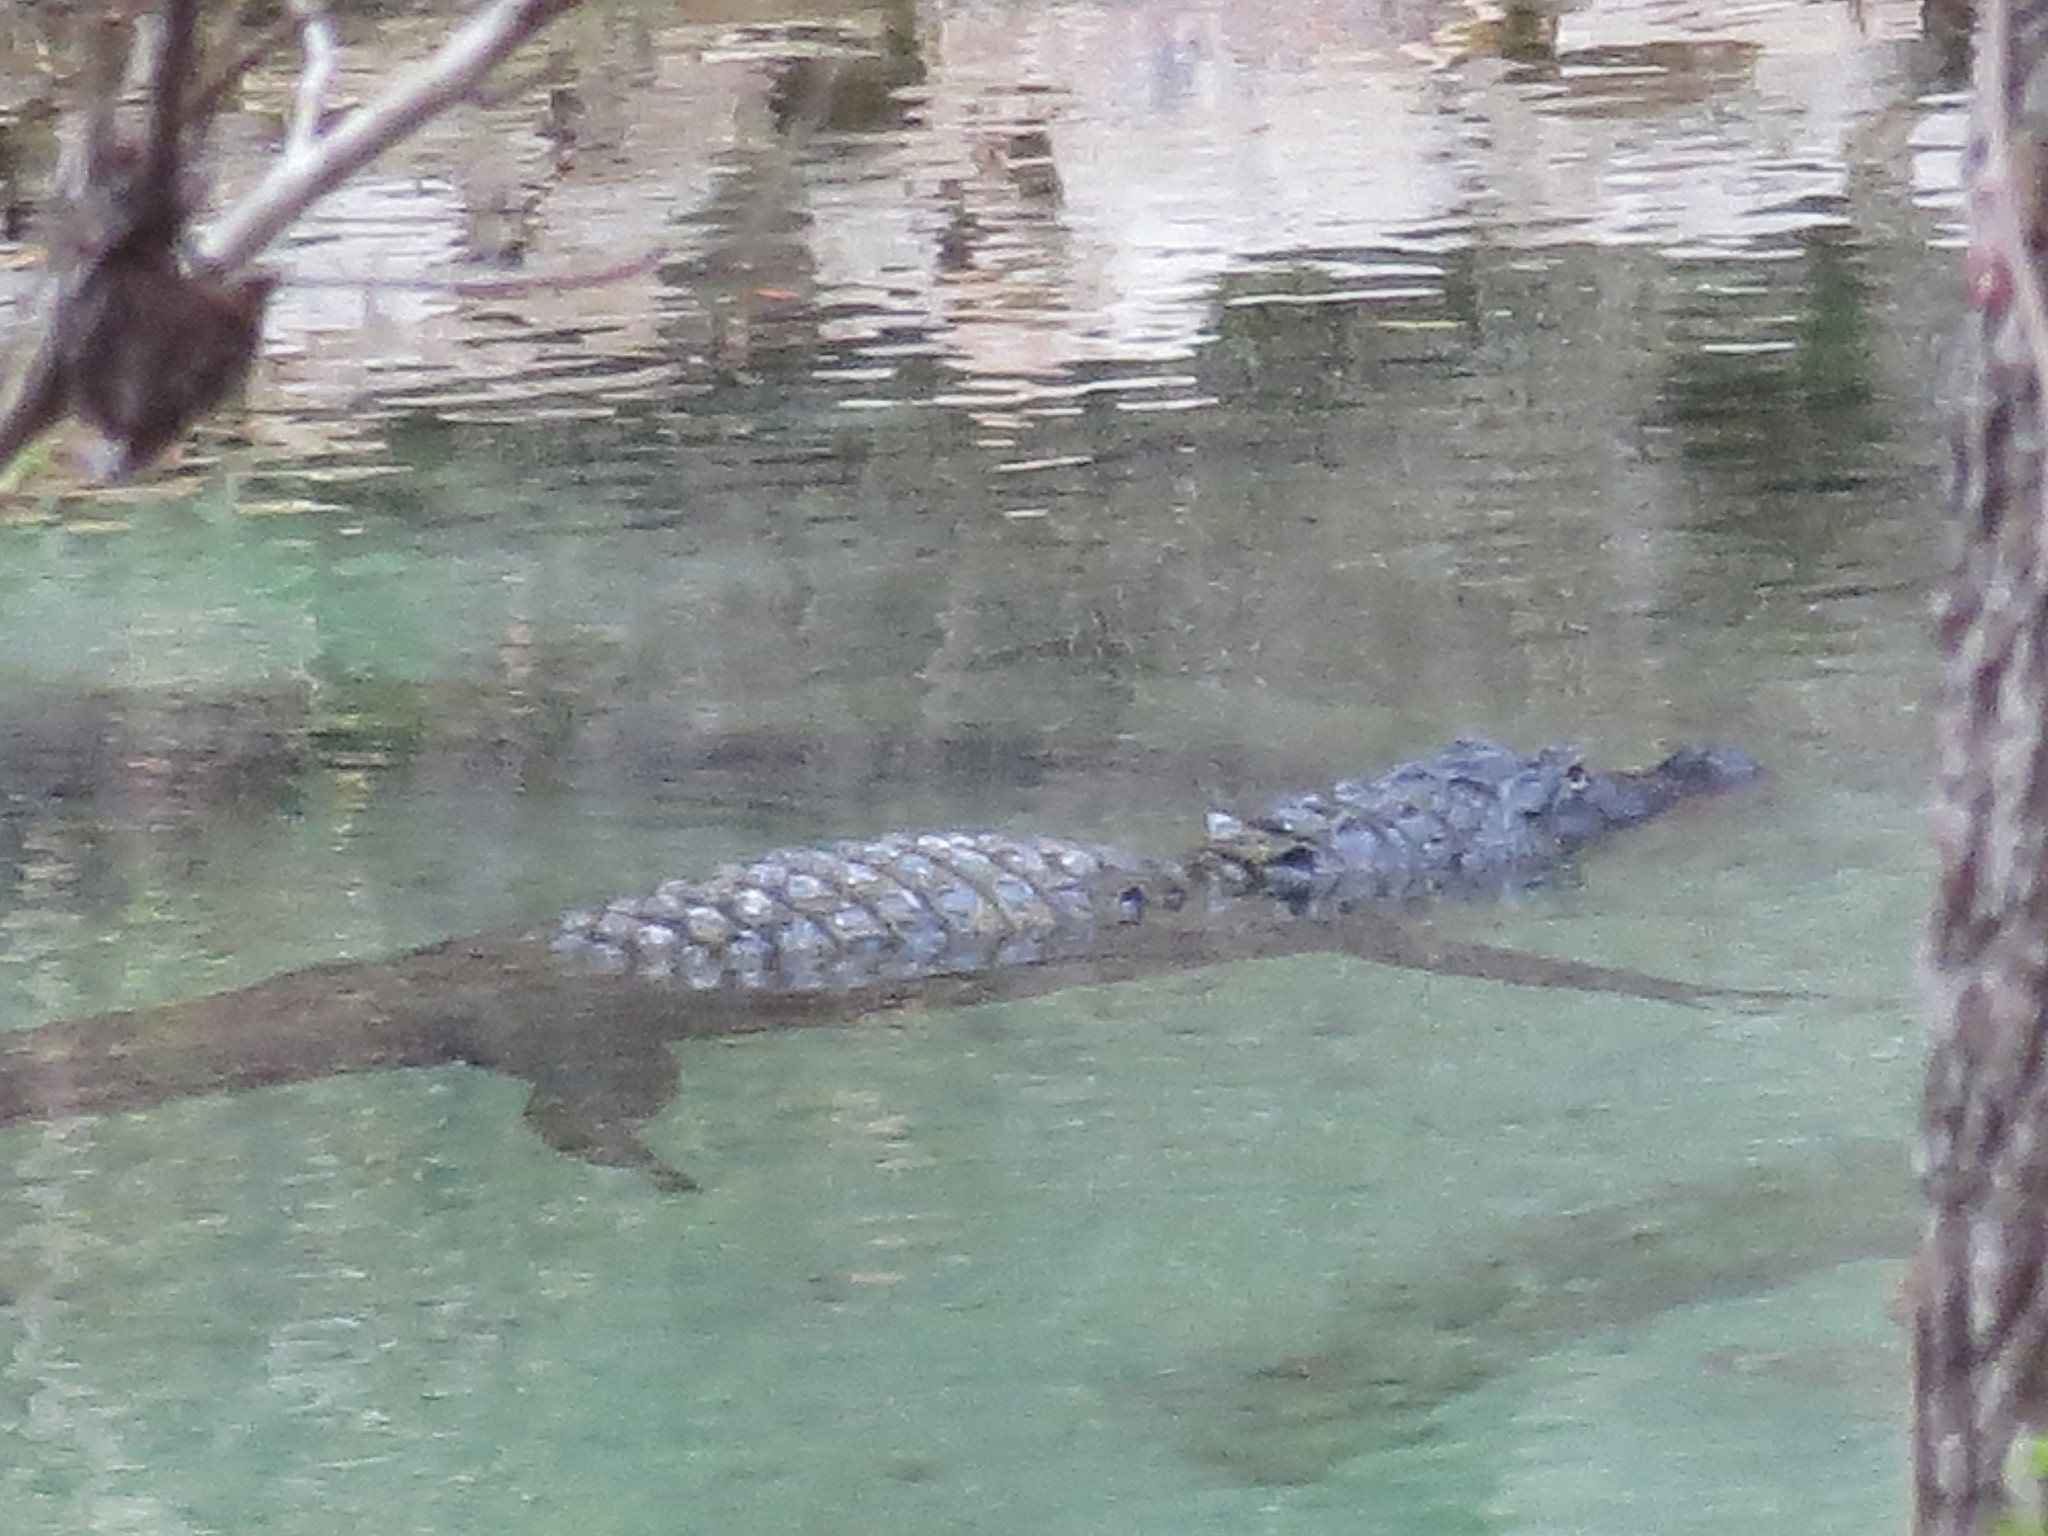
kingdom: Animalia
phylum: Chordata
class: Crocodylia
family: Alligatoridae
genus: Alligator
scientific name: Alligator mississippiensis
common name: American alligator
